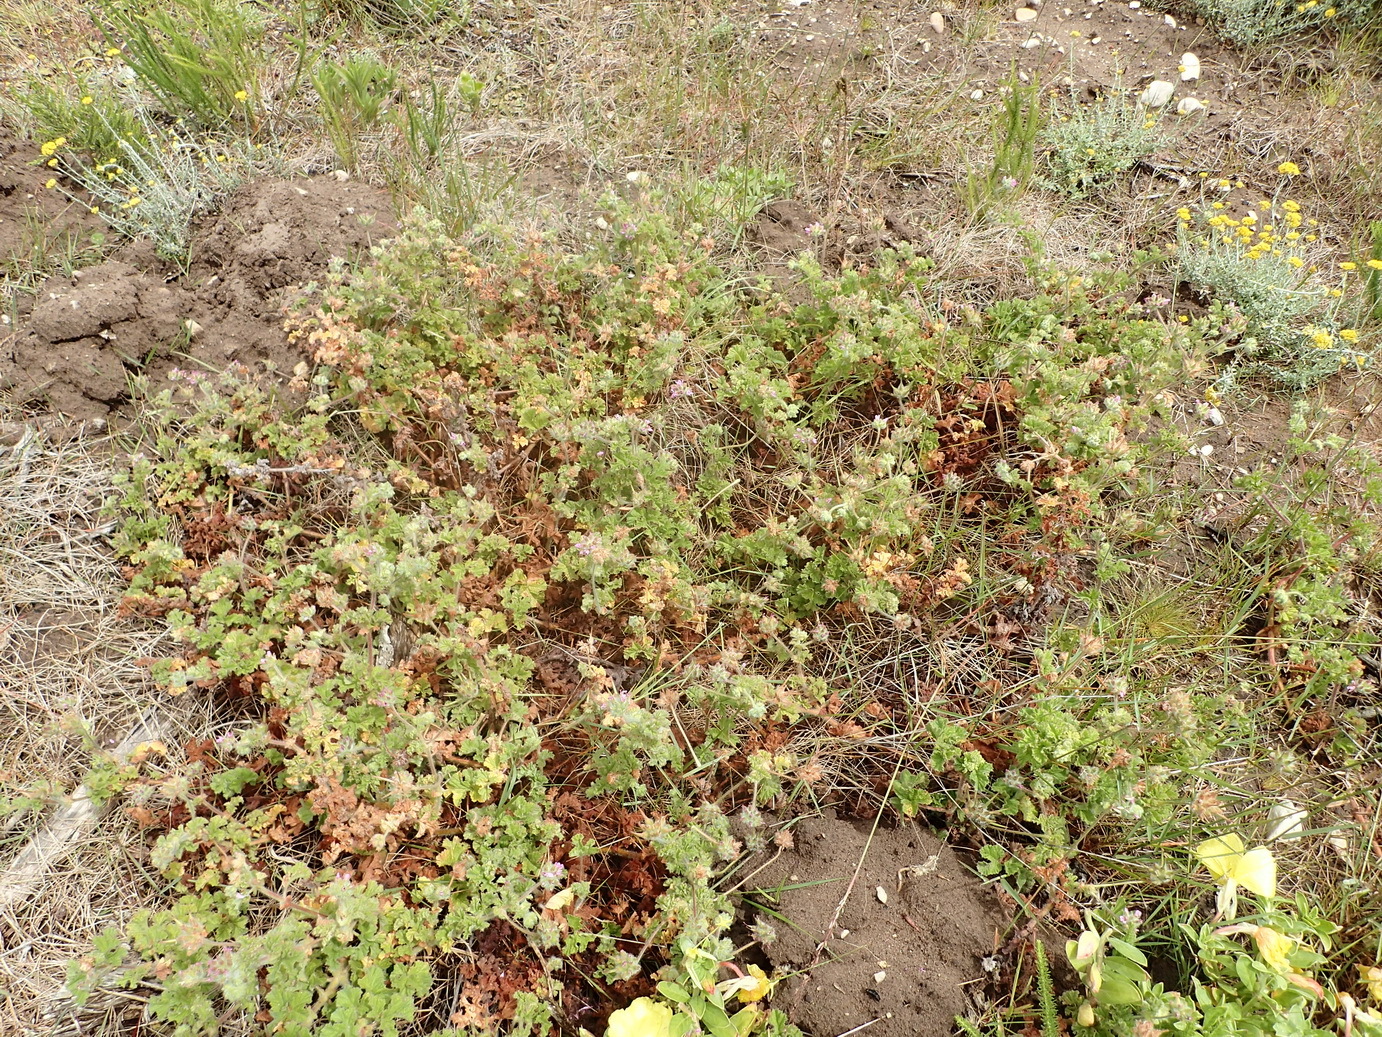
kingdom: Plantae
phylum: Tracheophyta
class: Magnoliopsida
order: Geraniales
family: Geraniaceae
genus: Pelargonium
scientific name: Pelargonium capitatum
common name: Rose scented geranium
